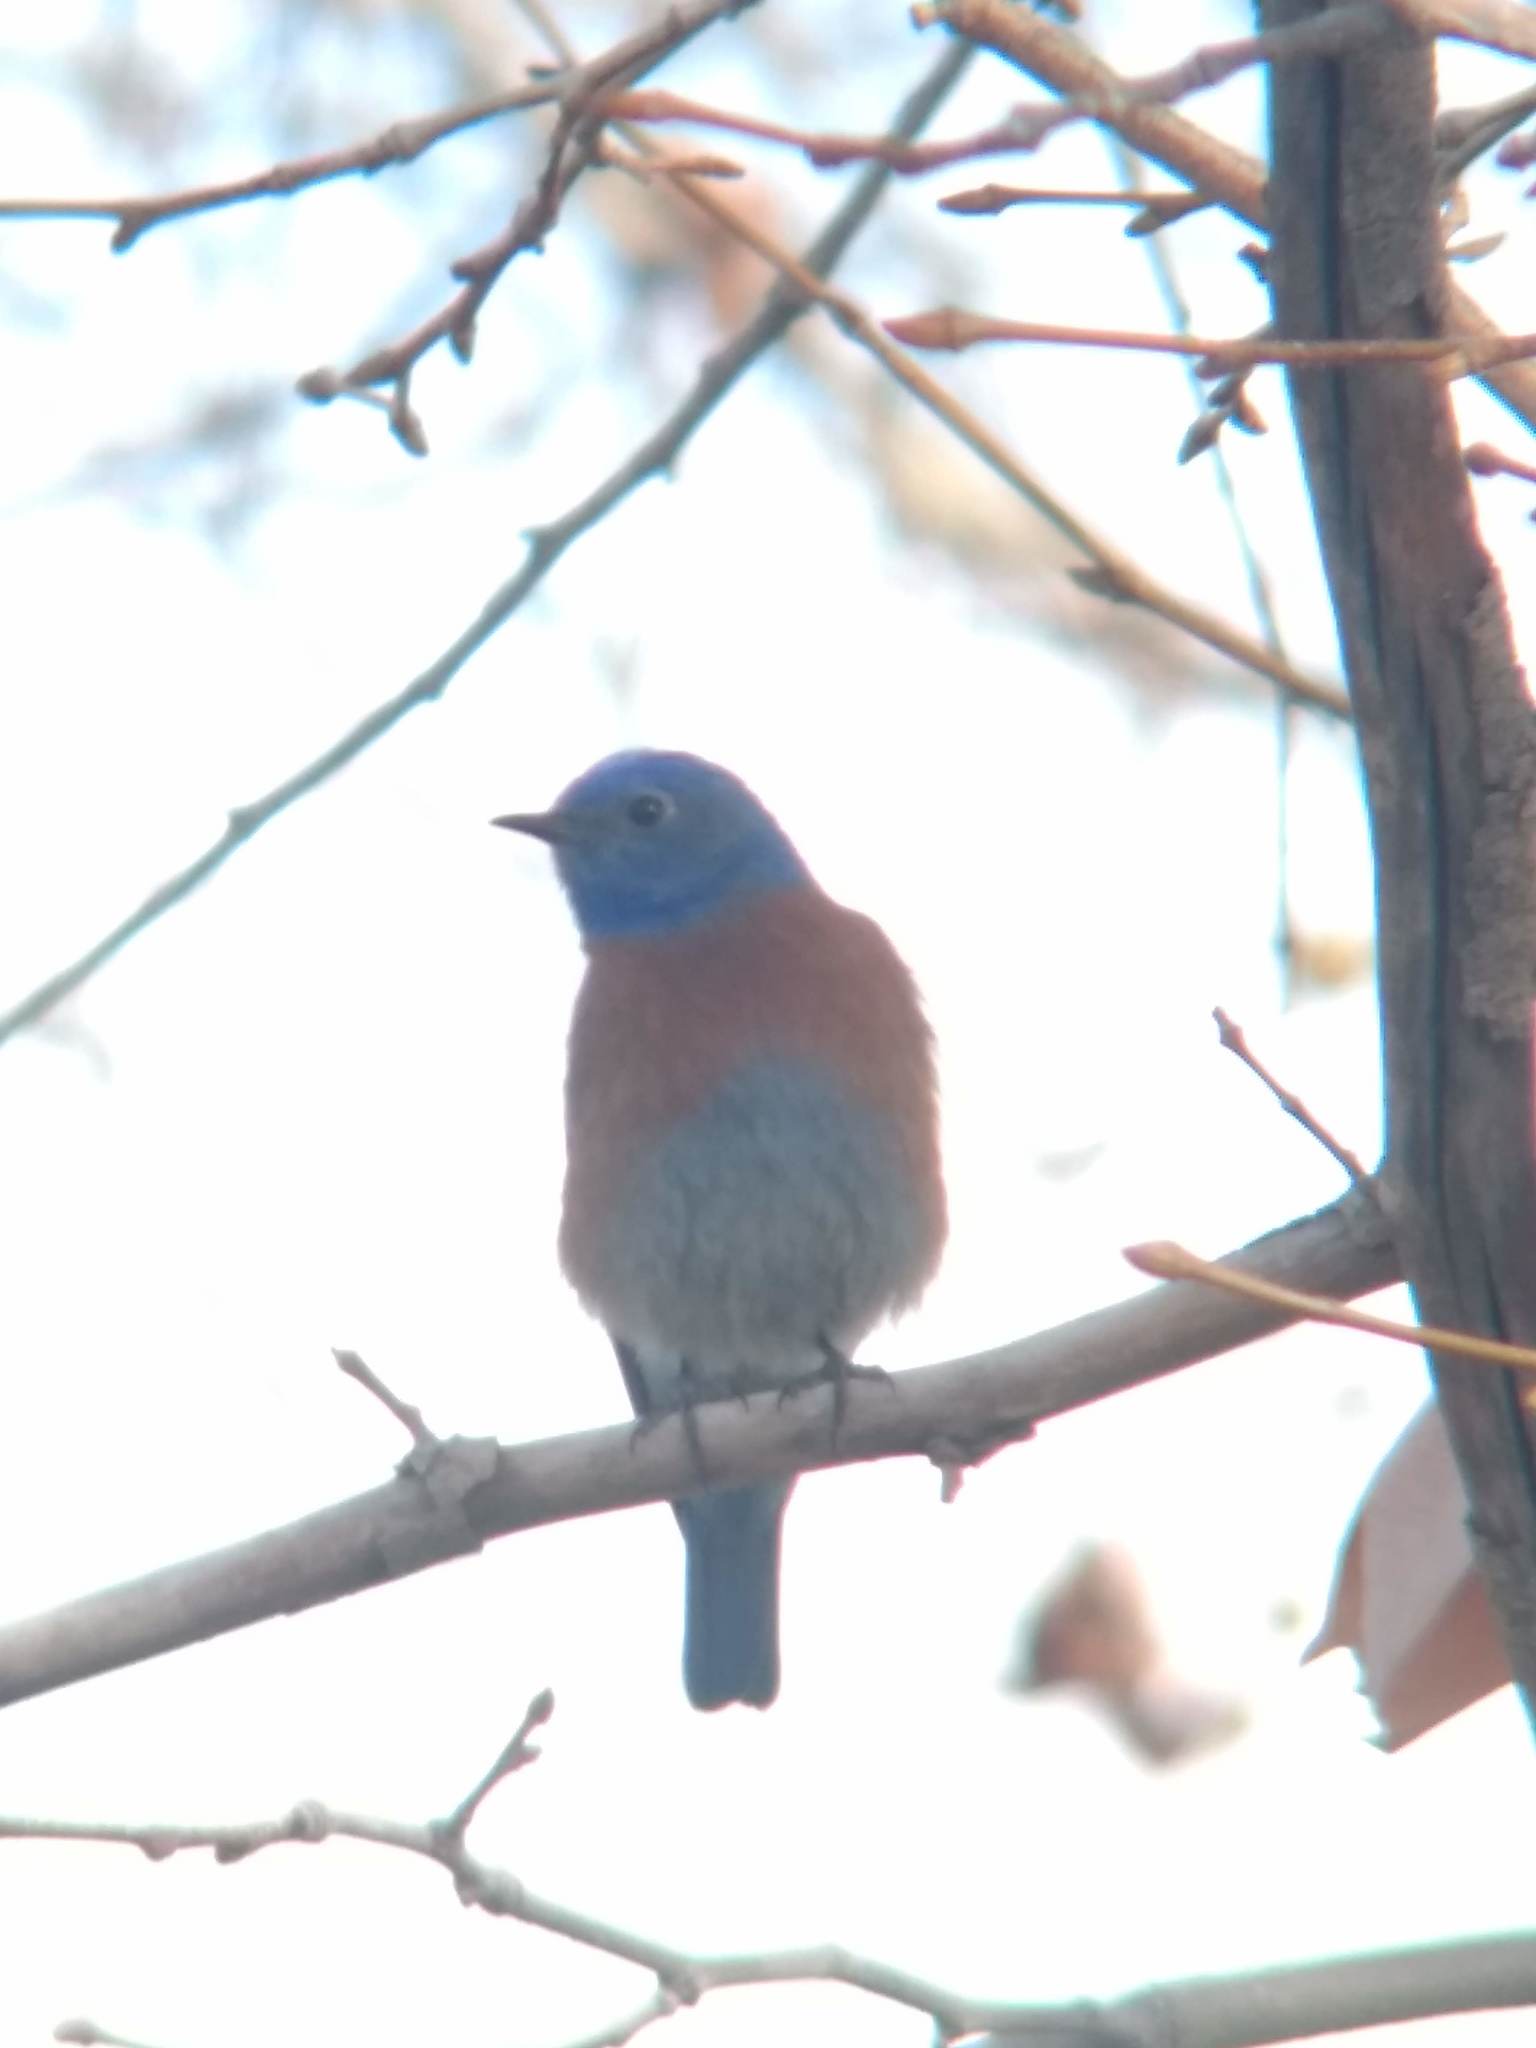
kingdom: Animalia
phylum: Chordata
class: Aves
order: Passeriformes
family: Turdidae
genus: Sialia
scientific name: Sialia mexicana
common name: Western bluebird
